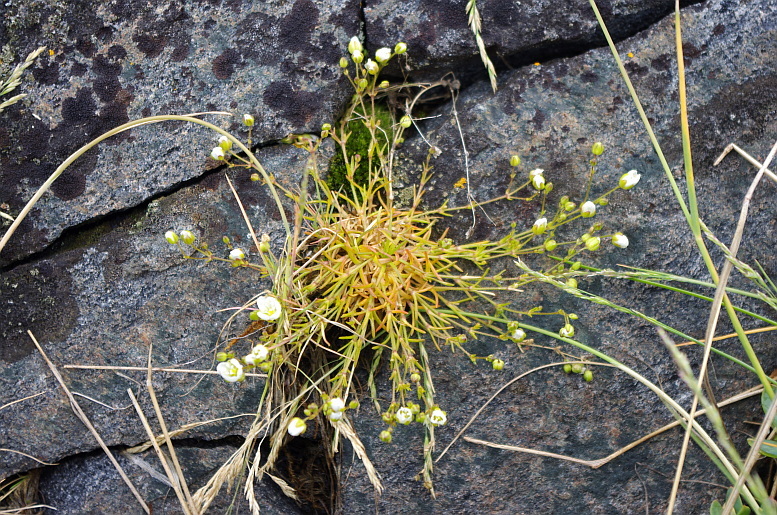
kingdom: Plantae
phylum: Tracheophyta
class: Magnoliopsida
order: Caryophyllales
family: Caryophyllaceae
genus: Sagina
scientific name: Sagina nodosa
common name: Knotted pearlwort
